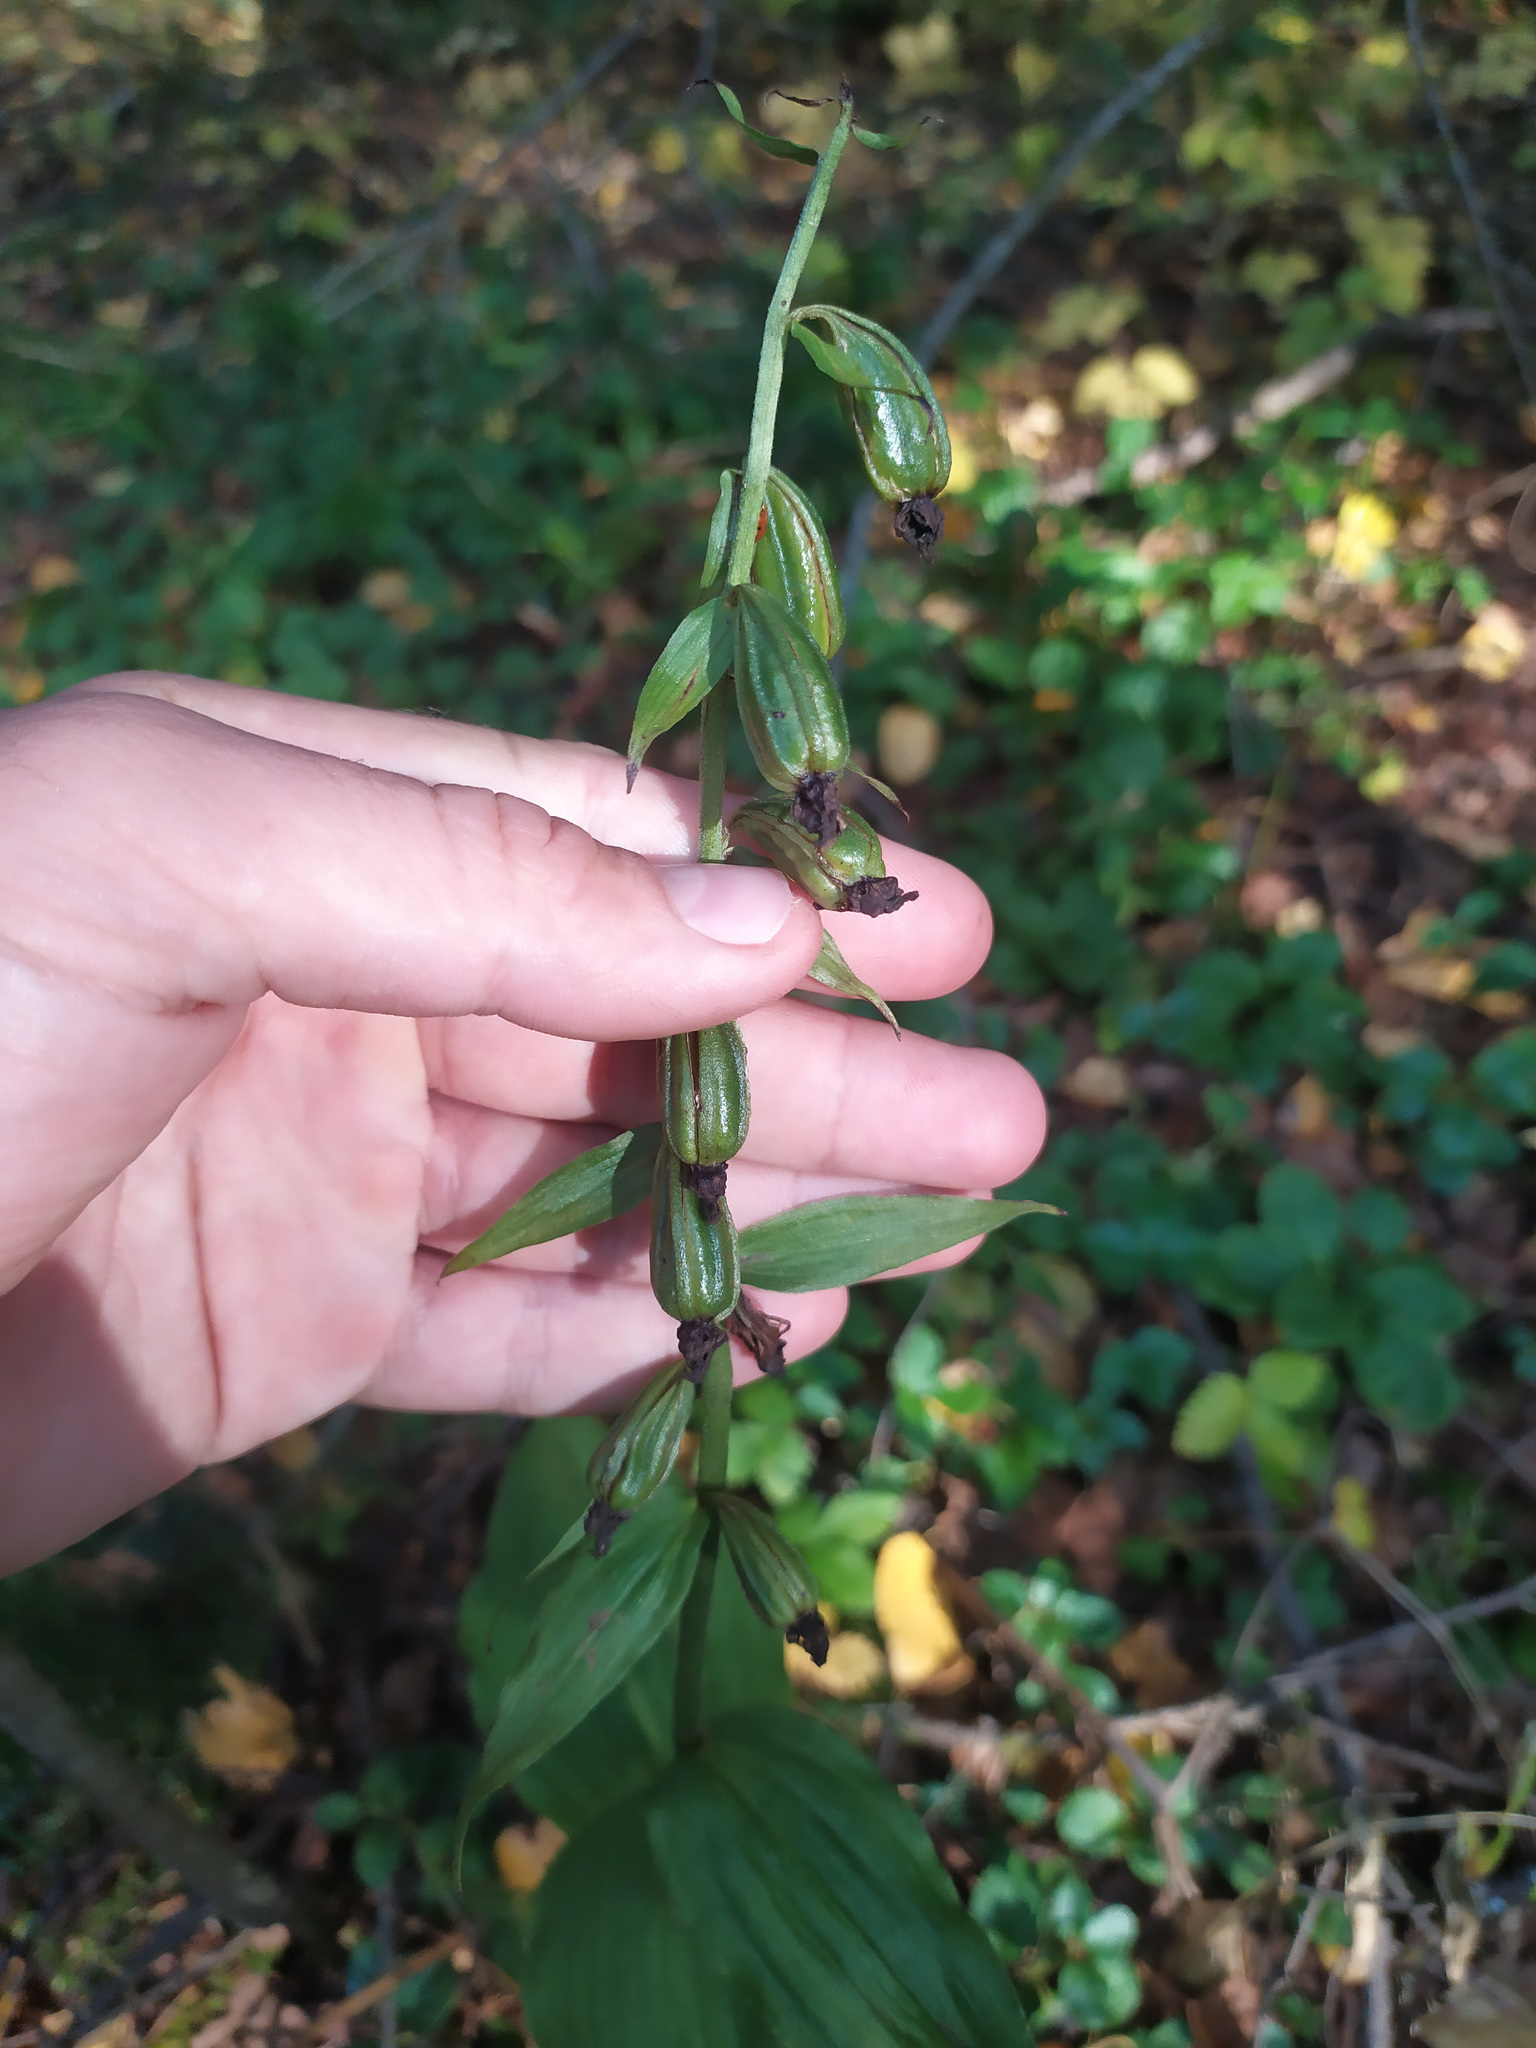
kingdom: Plantae
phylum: Tracheophyta
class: Liliopsida
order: Asparagales
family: Orchidaceae
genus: Epipactis
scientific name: Epipactis helleborine
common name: Broad-leaved helleborine
